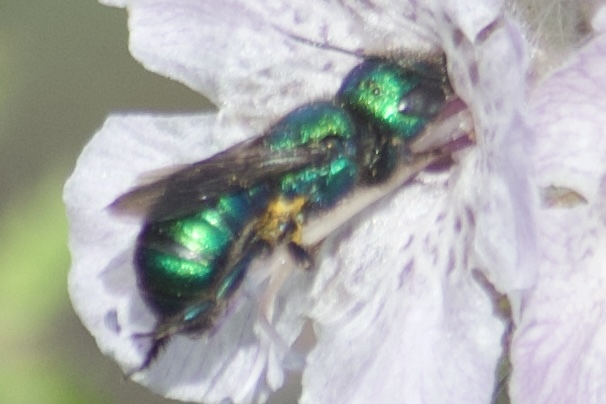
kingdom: Animalia
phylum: Arthropoda
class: Insecta
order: Hymenoptera
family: Megachilidae
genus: Hoplitis
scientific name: Hoplitis fulgida
